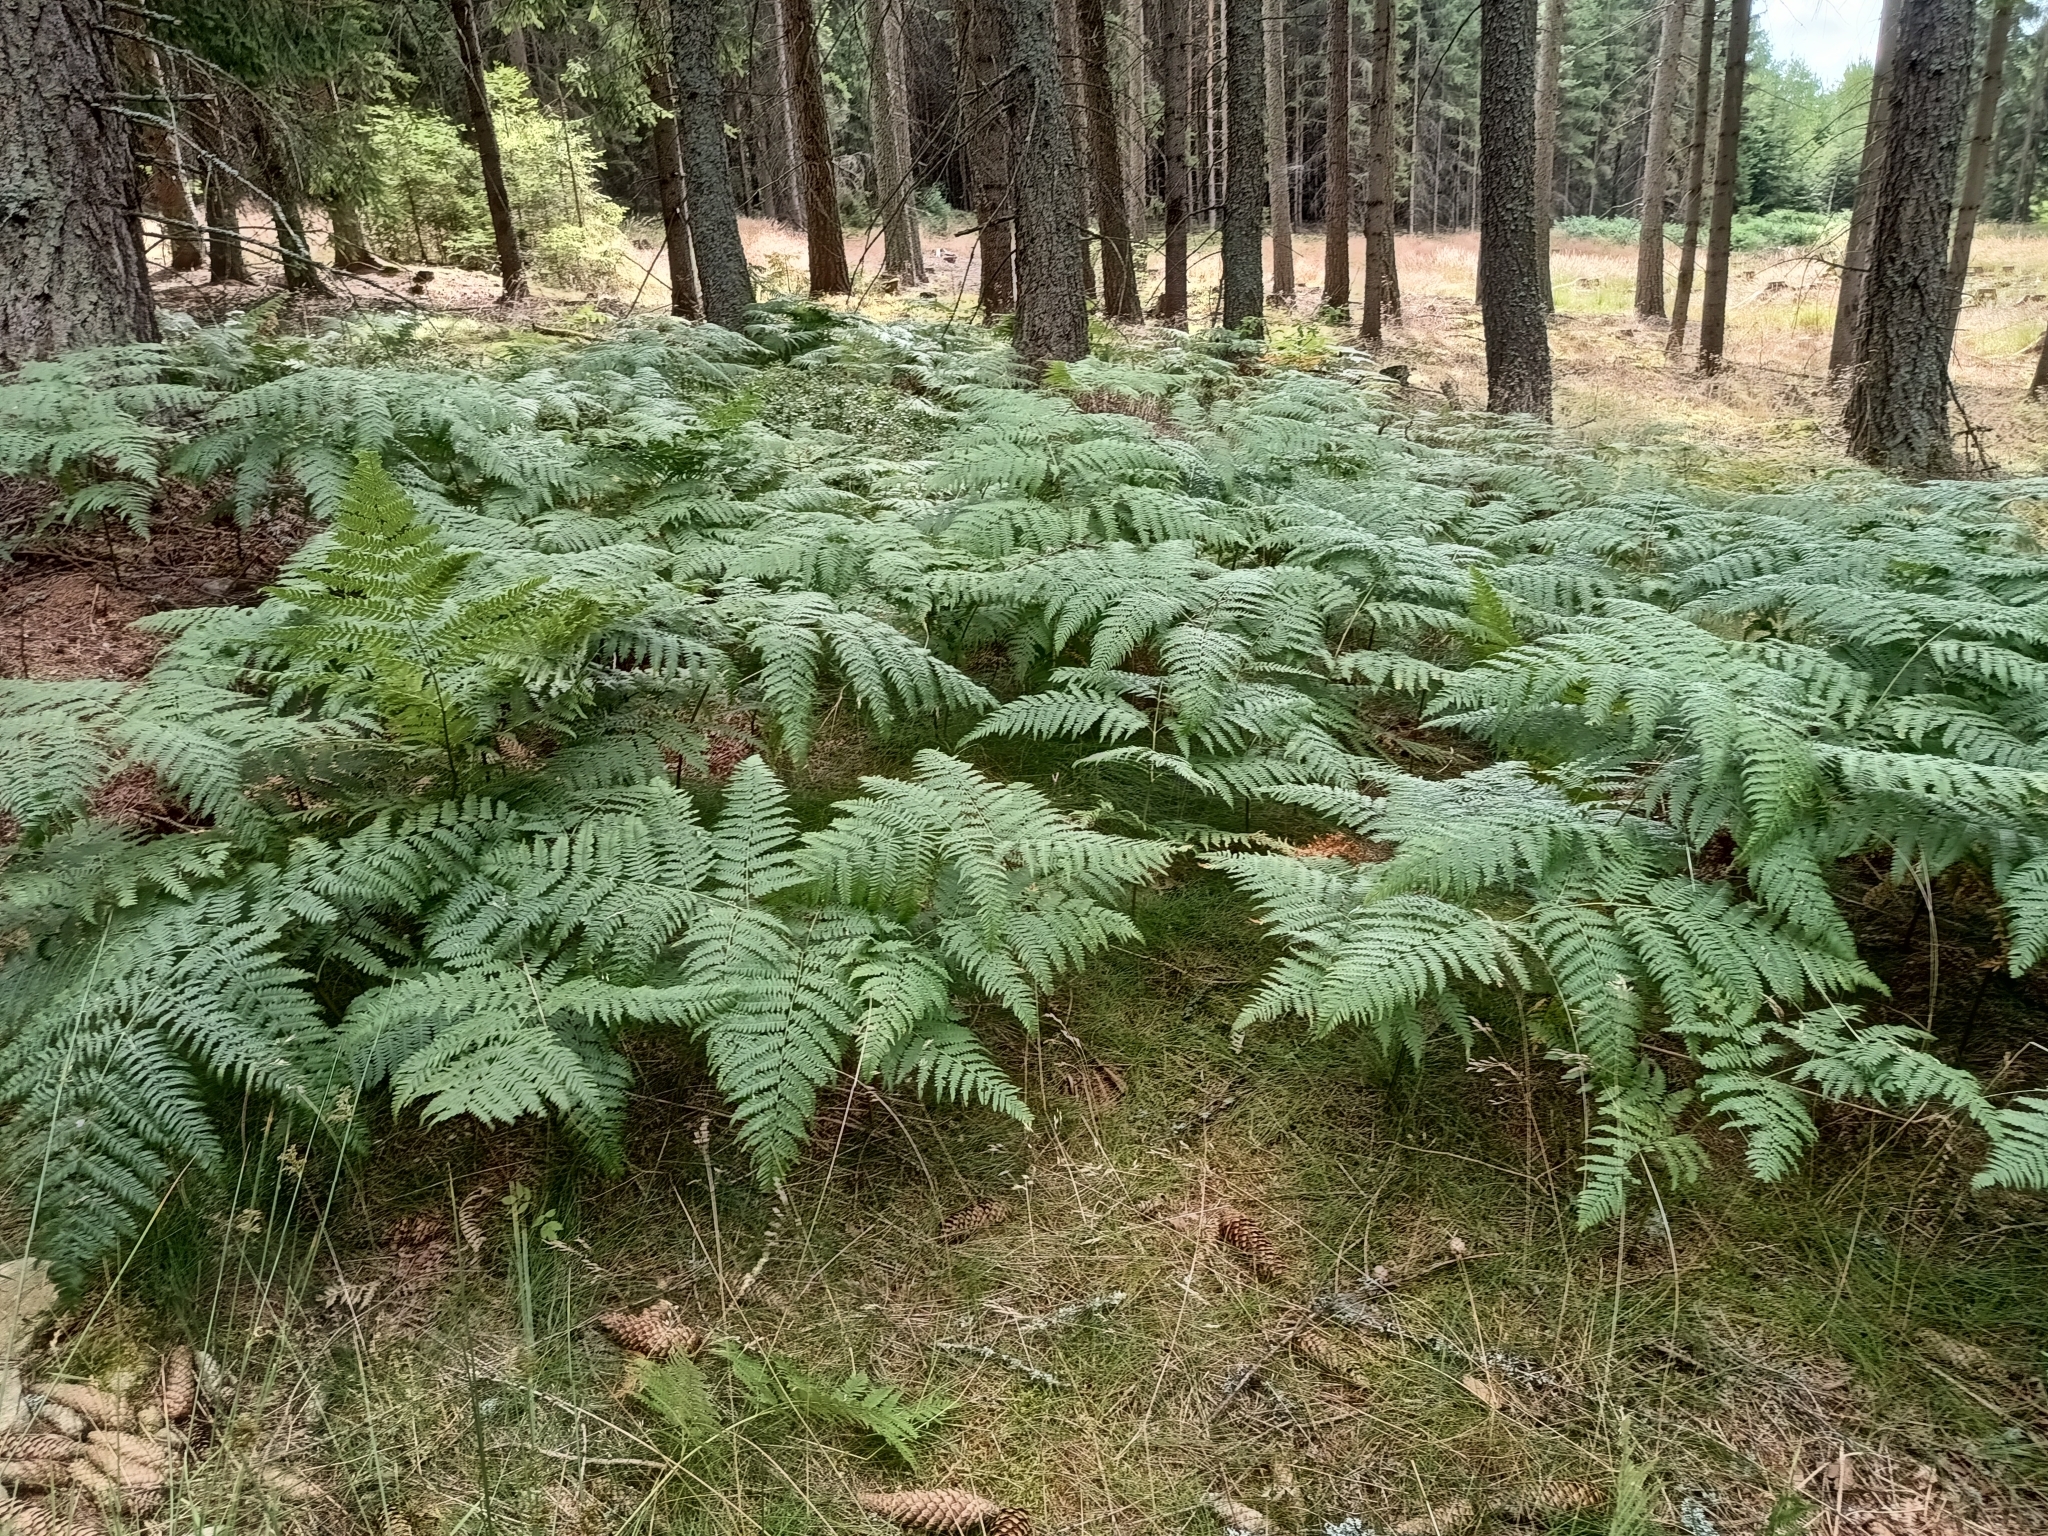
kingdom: Plantae
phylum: Tracheophyta
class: Polypodiopsida
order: Polypodiales
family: Dennstaedtiaceae
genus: Pteridium
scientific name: Pteridium aquilinum
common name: Bracken
